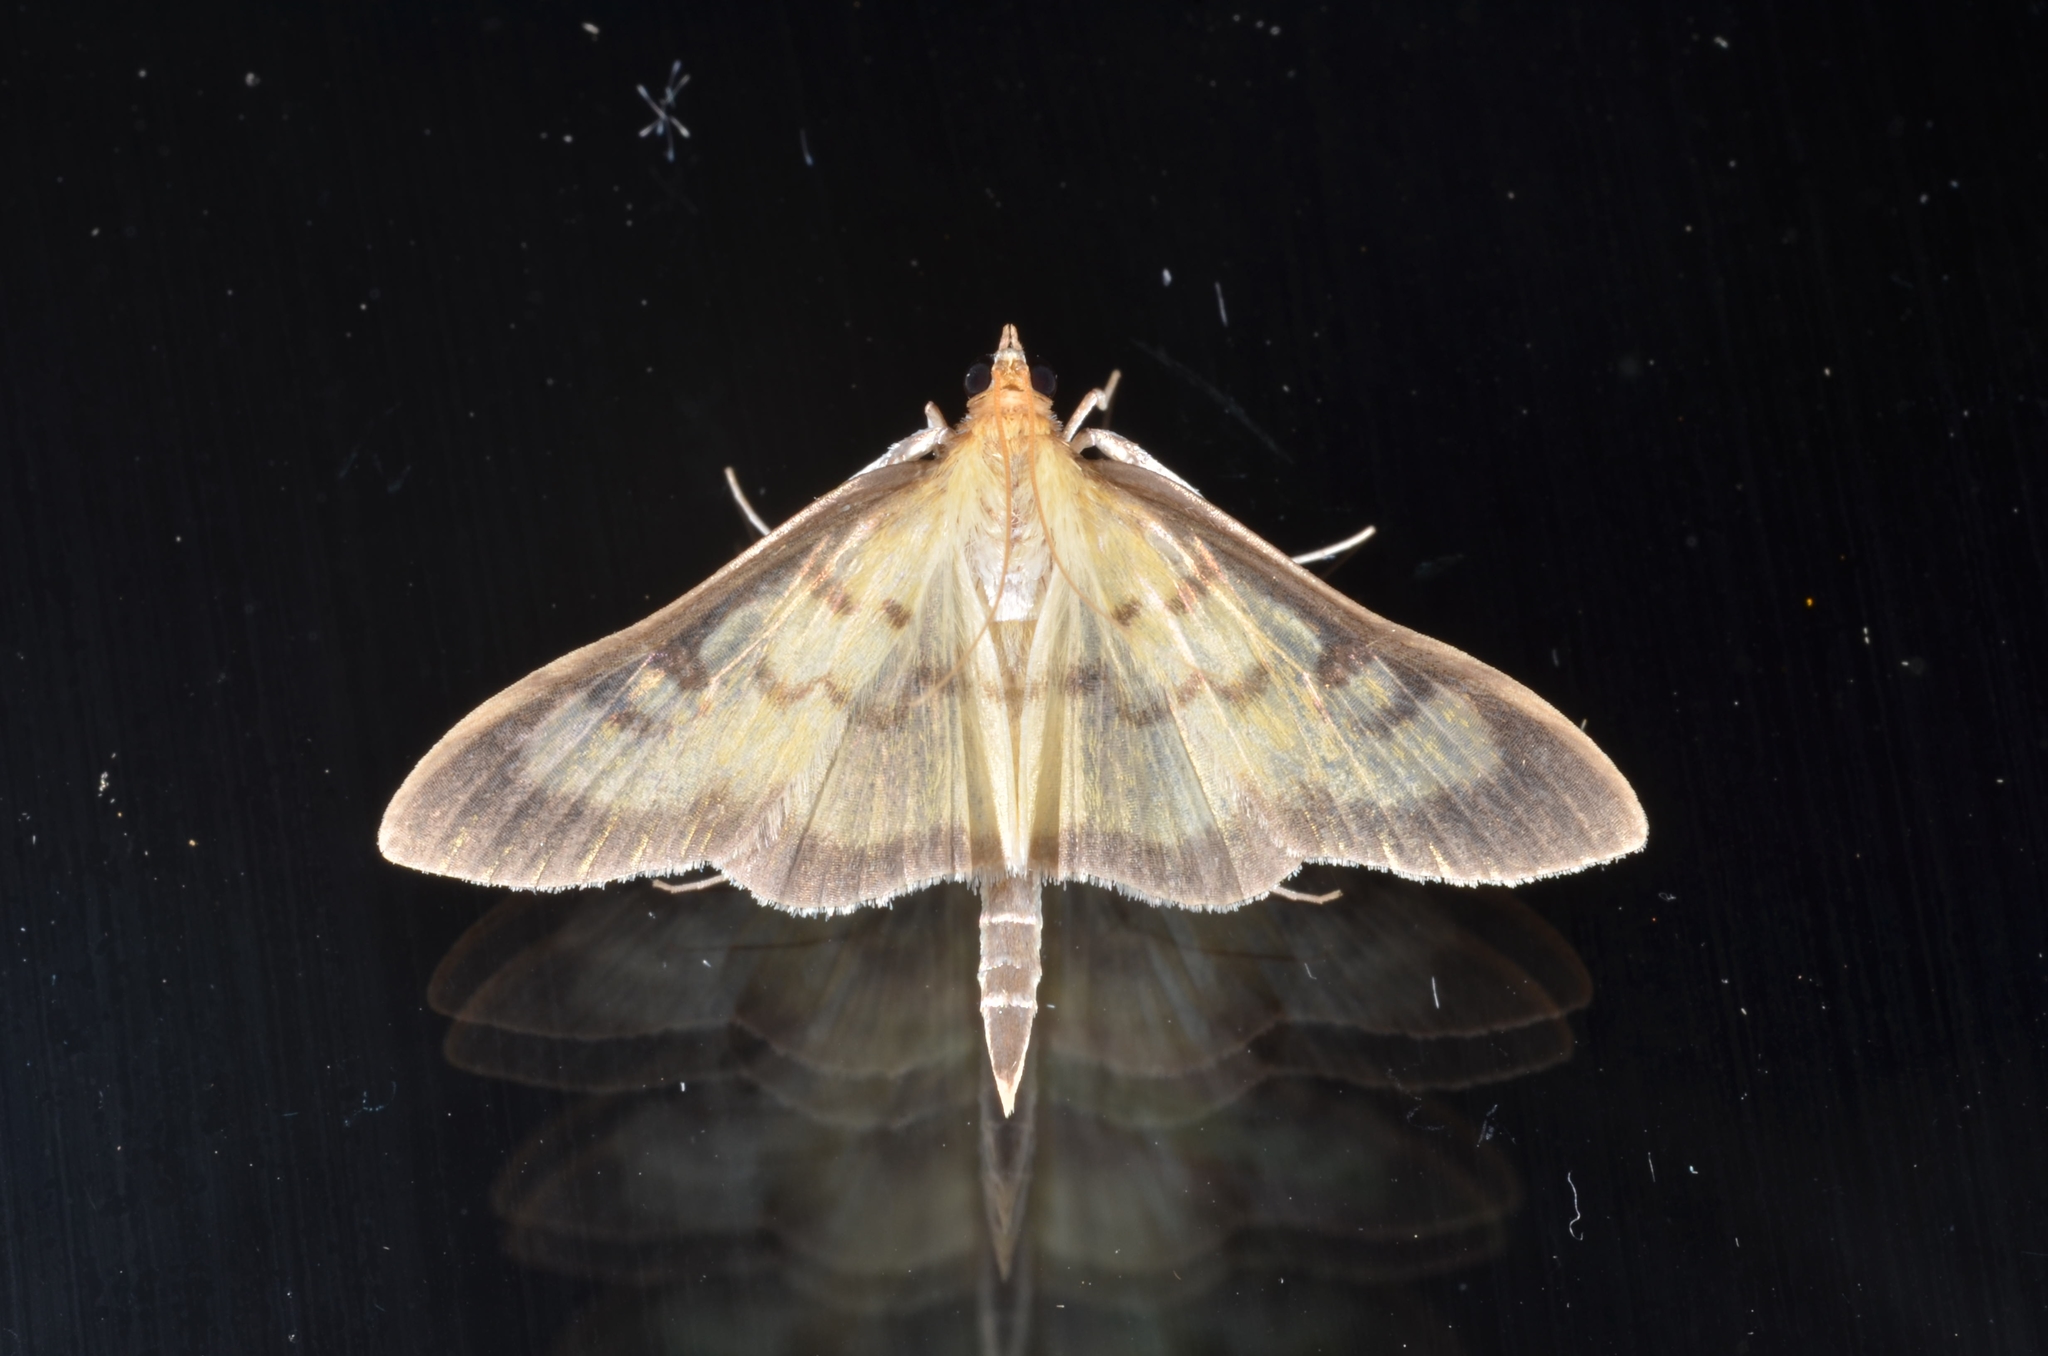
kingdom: Animalia
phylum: Arthropoda
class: Insecta
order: Lepidoptera
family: Crambidae
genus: Paratalanta
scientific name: Paratalanta ussurialis
